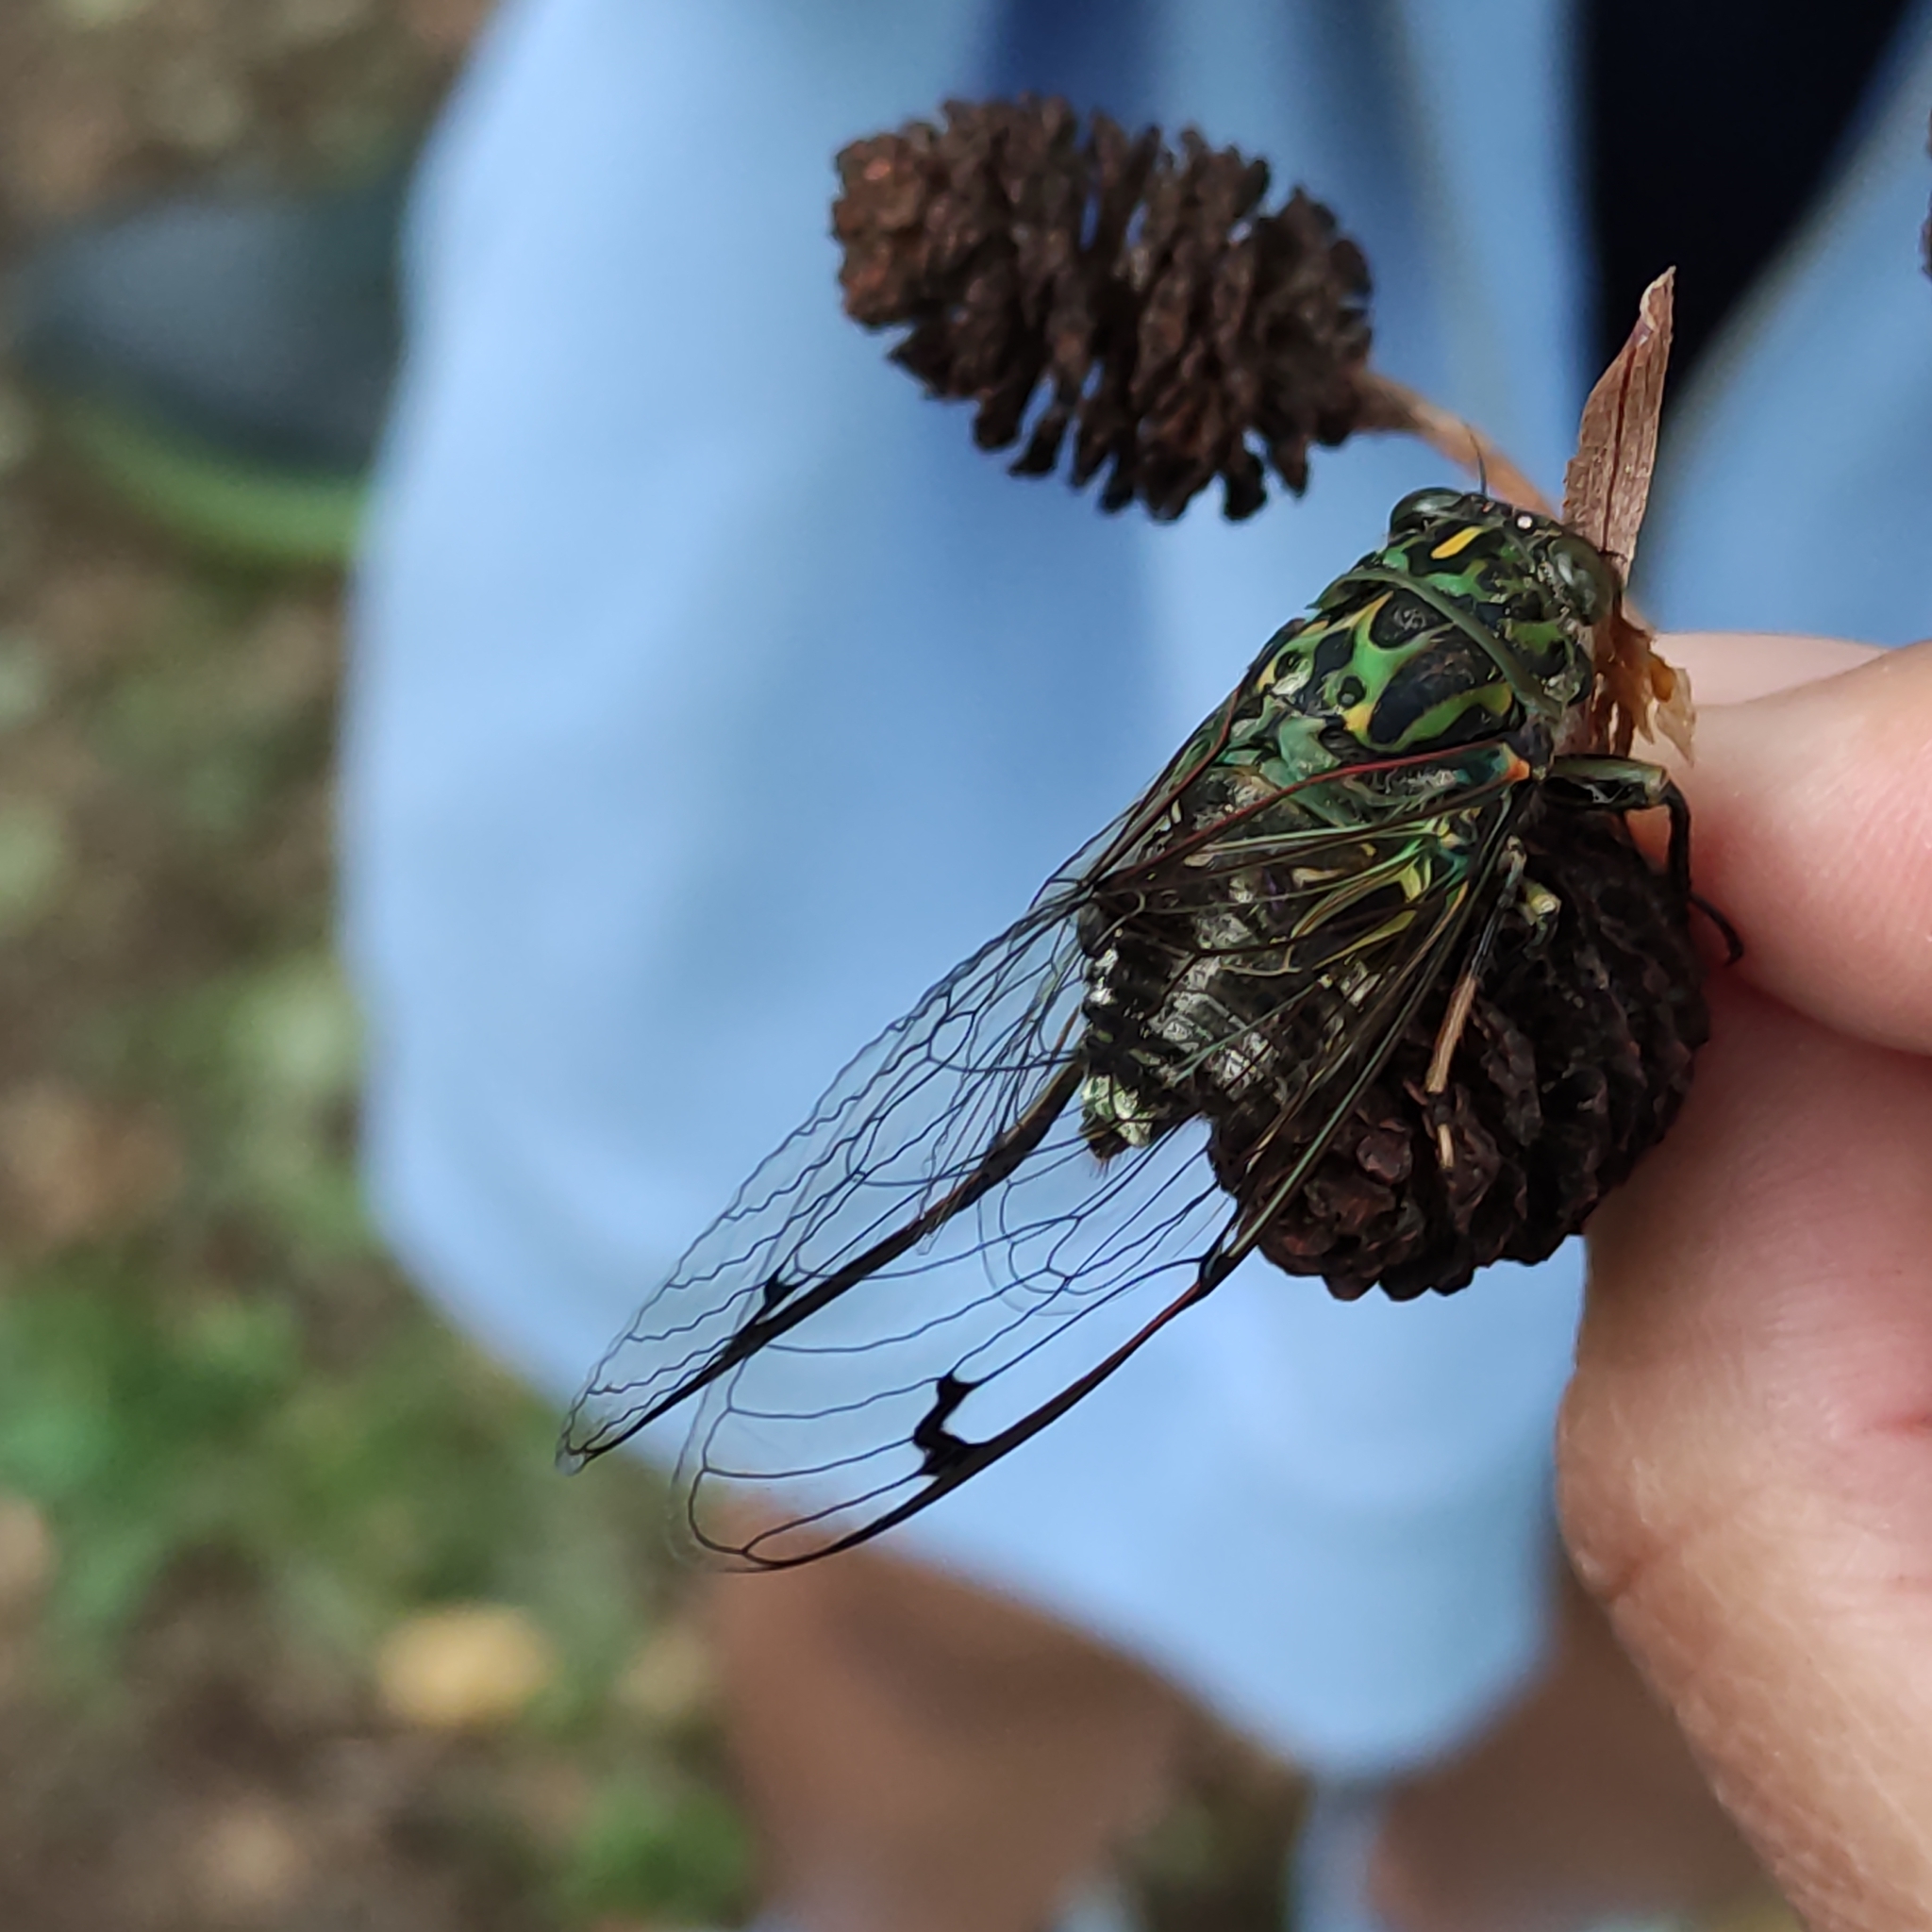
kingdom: Animalia
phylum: Arthropoda
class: Insecta
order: Hemiptera
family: Cicadidae
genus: Amphipsalta
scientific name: Amphipsalta zelandica
